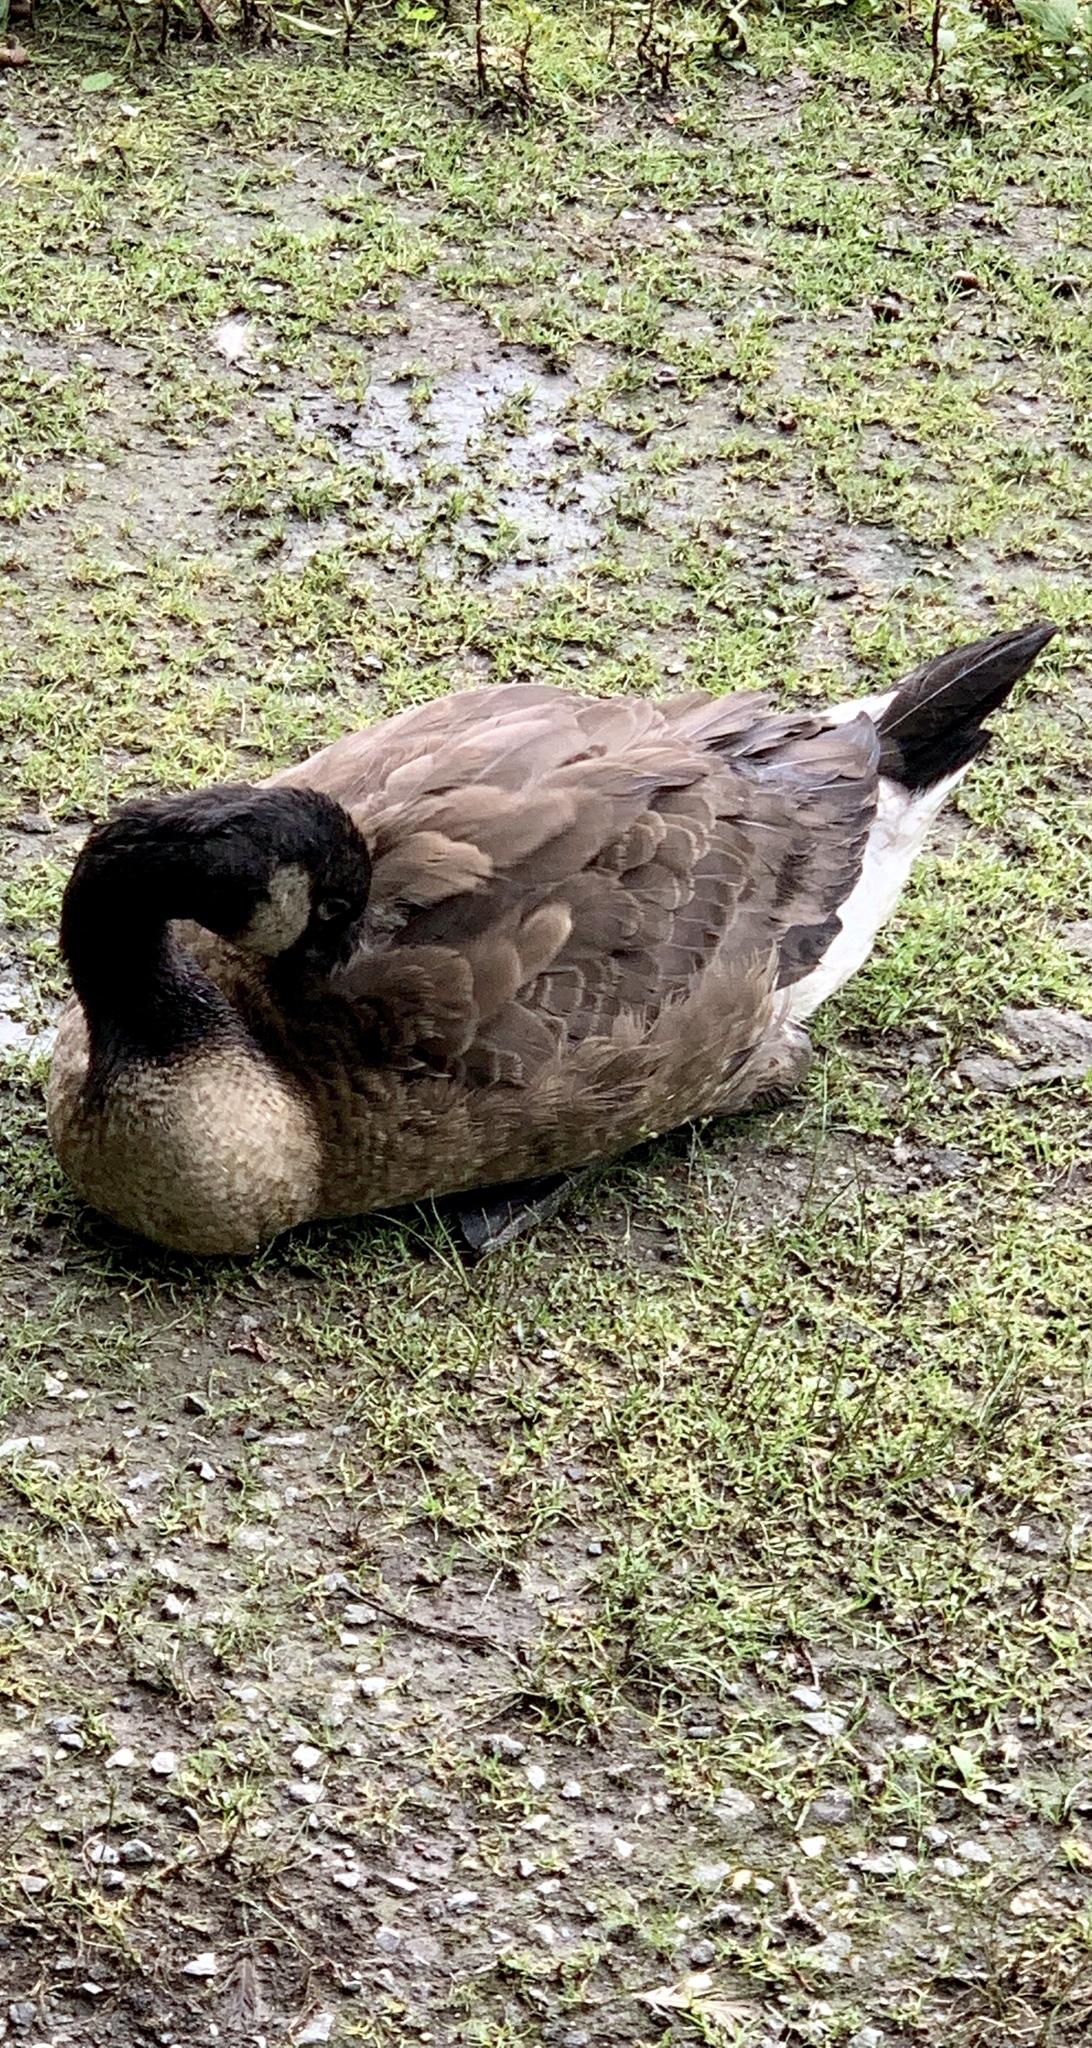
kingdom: Animalia
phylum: Chordata
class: Aves
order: Anseriformes
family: Anatidae
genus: Branta
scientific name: Branta canadensis
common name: Canada goose
